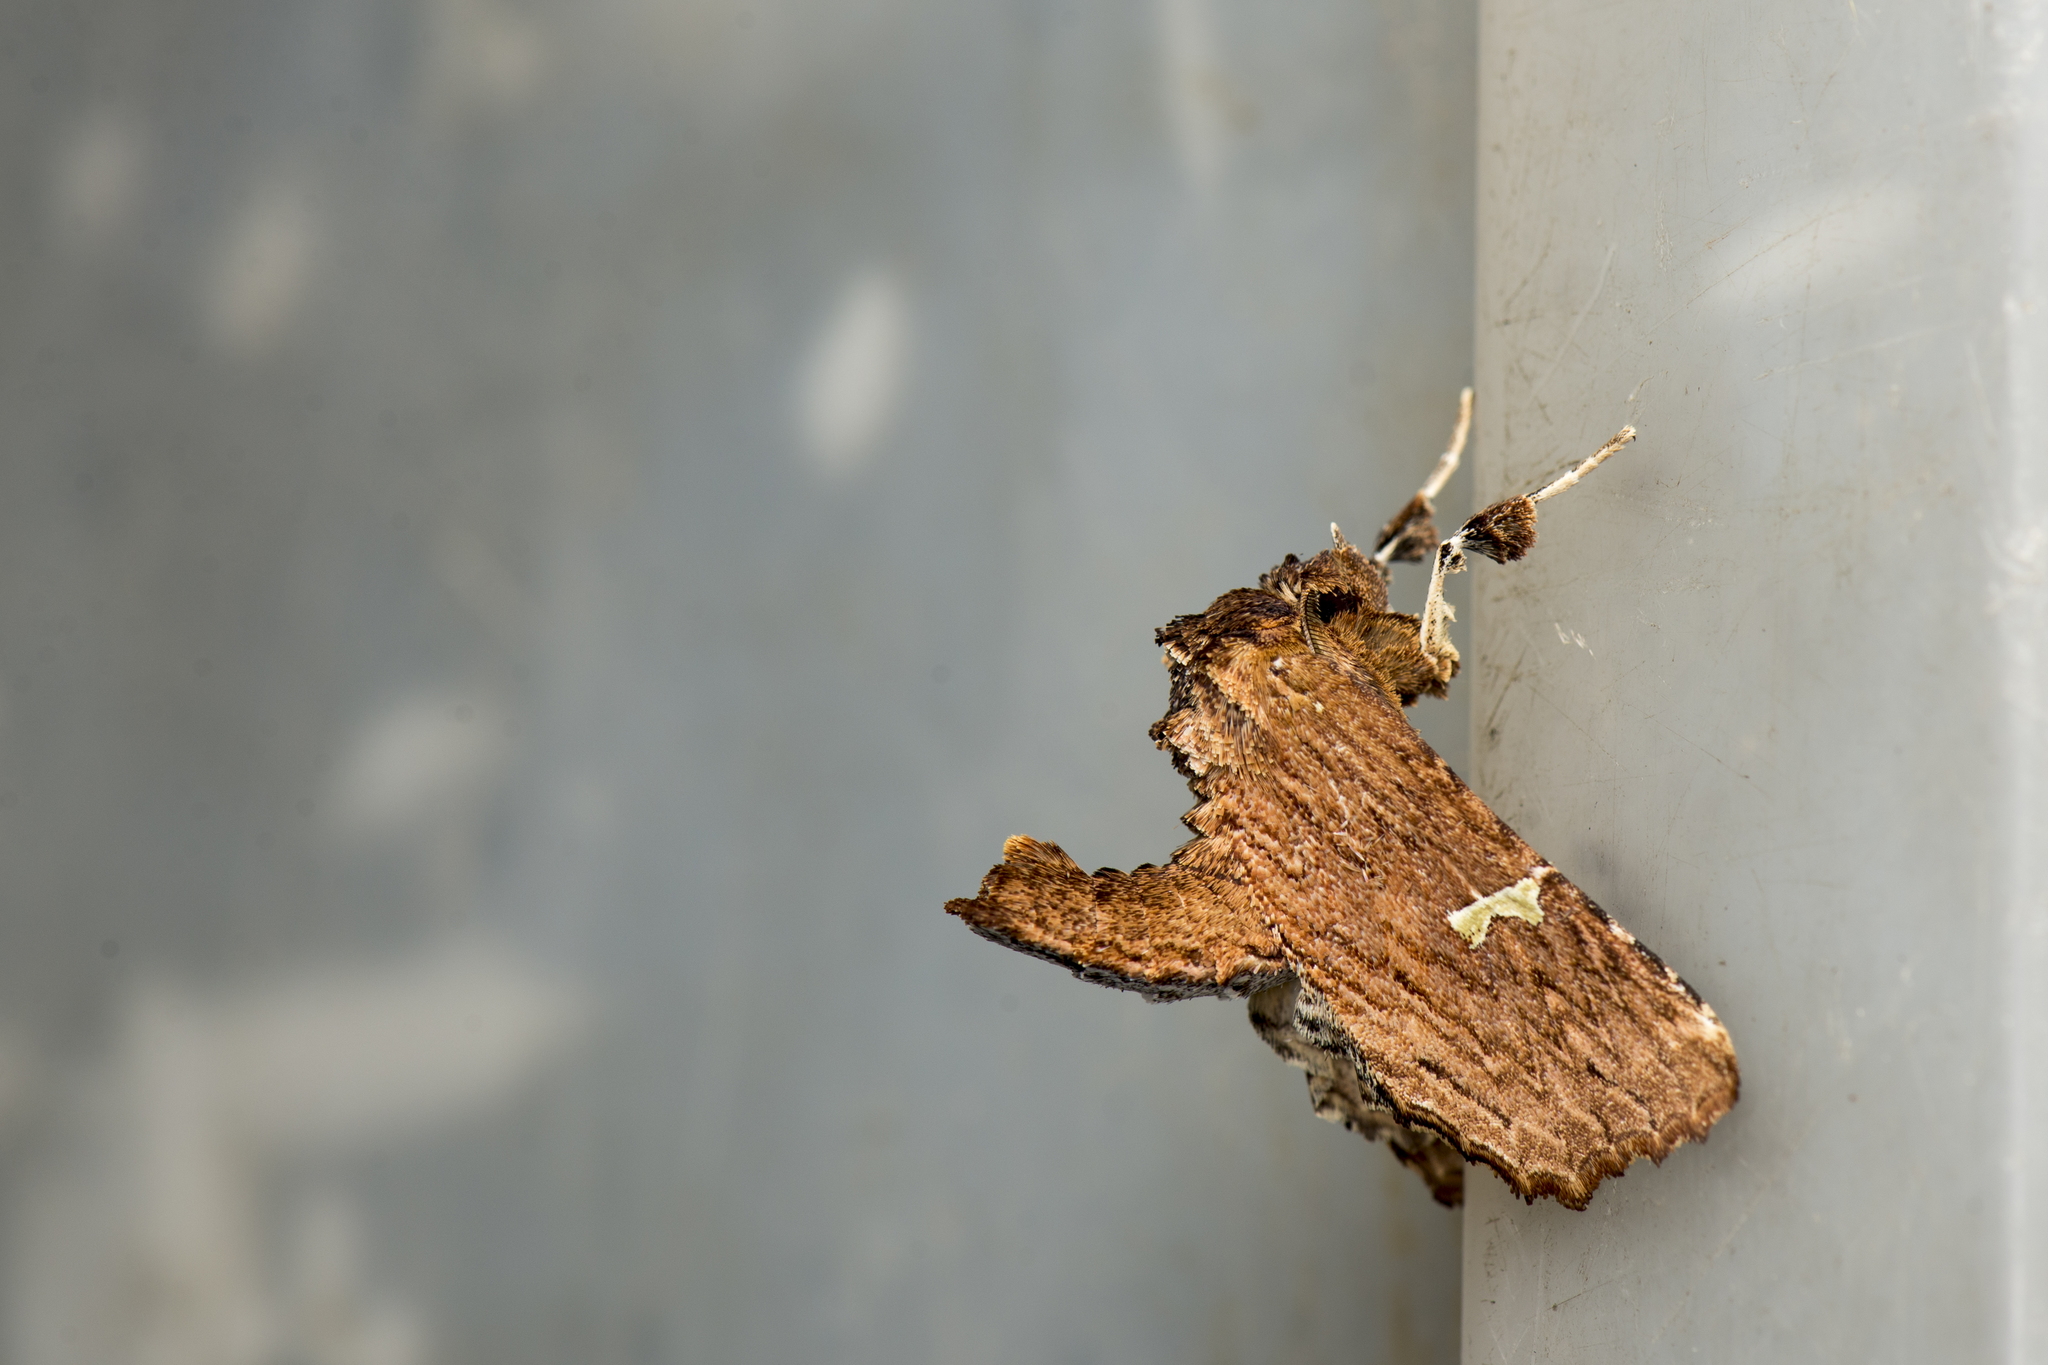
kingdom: Animalia
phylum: Arthropoda
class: Insecta
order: Lepidoptera
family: Euteliidae
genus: Eutelia
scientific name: Eutelia clarirena
